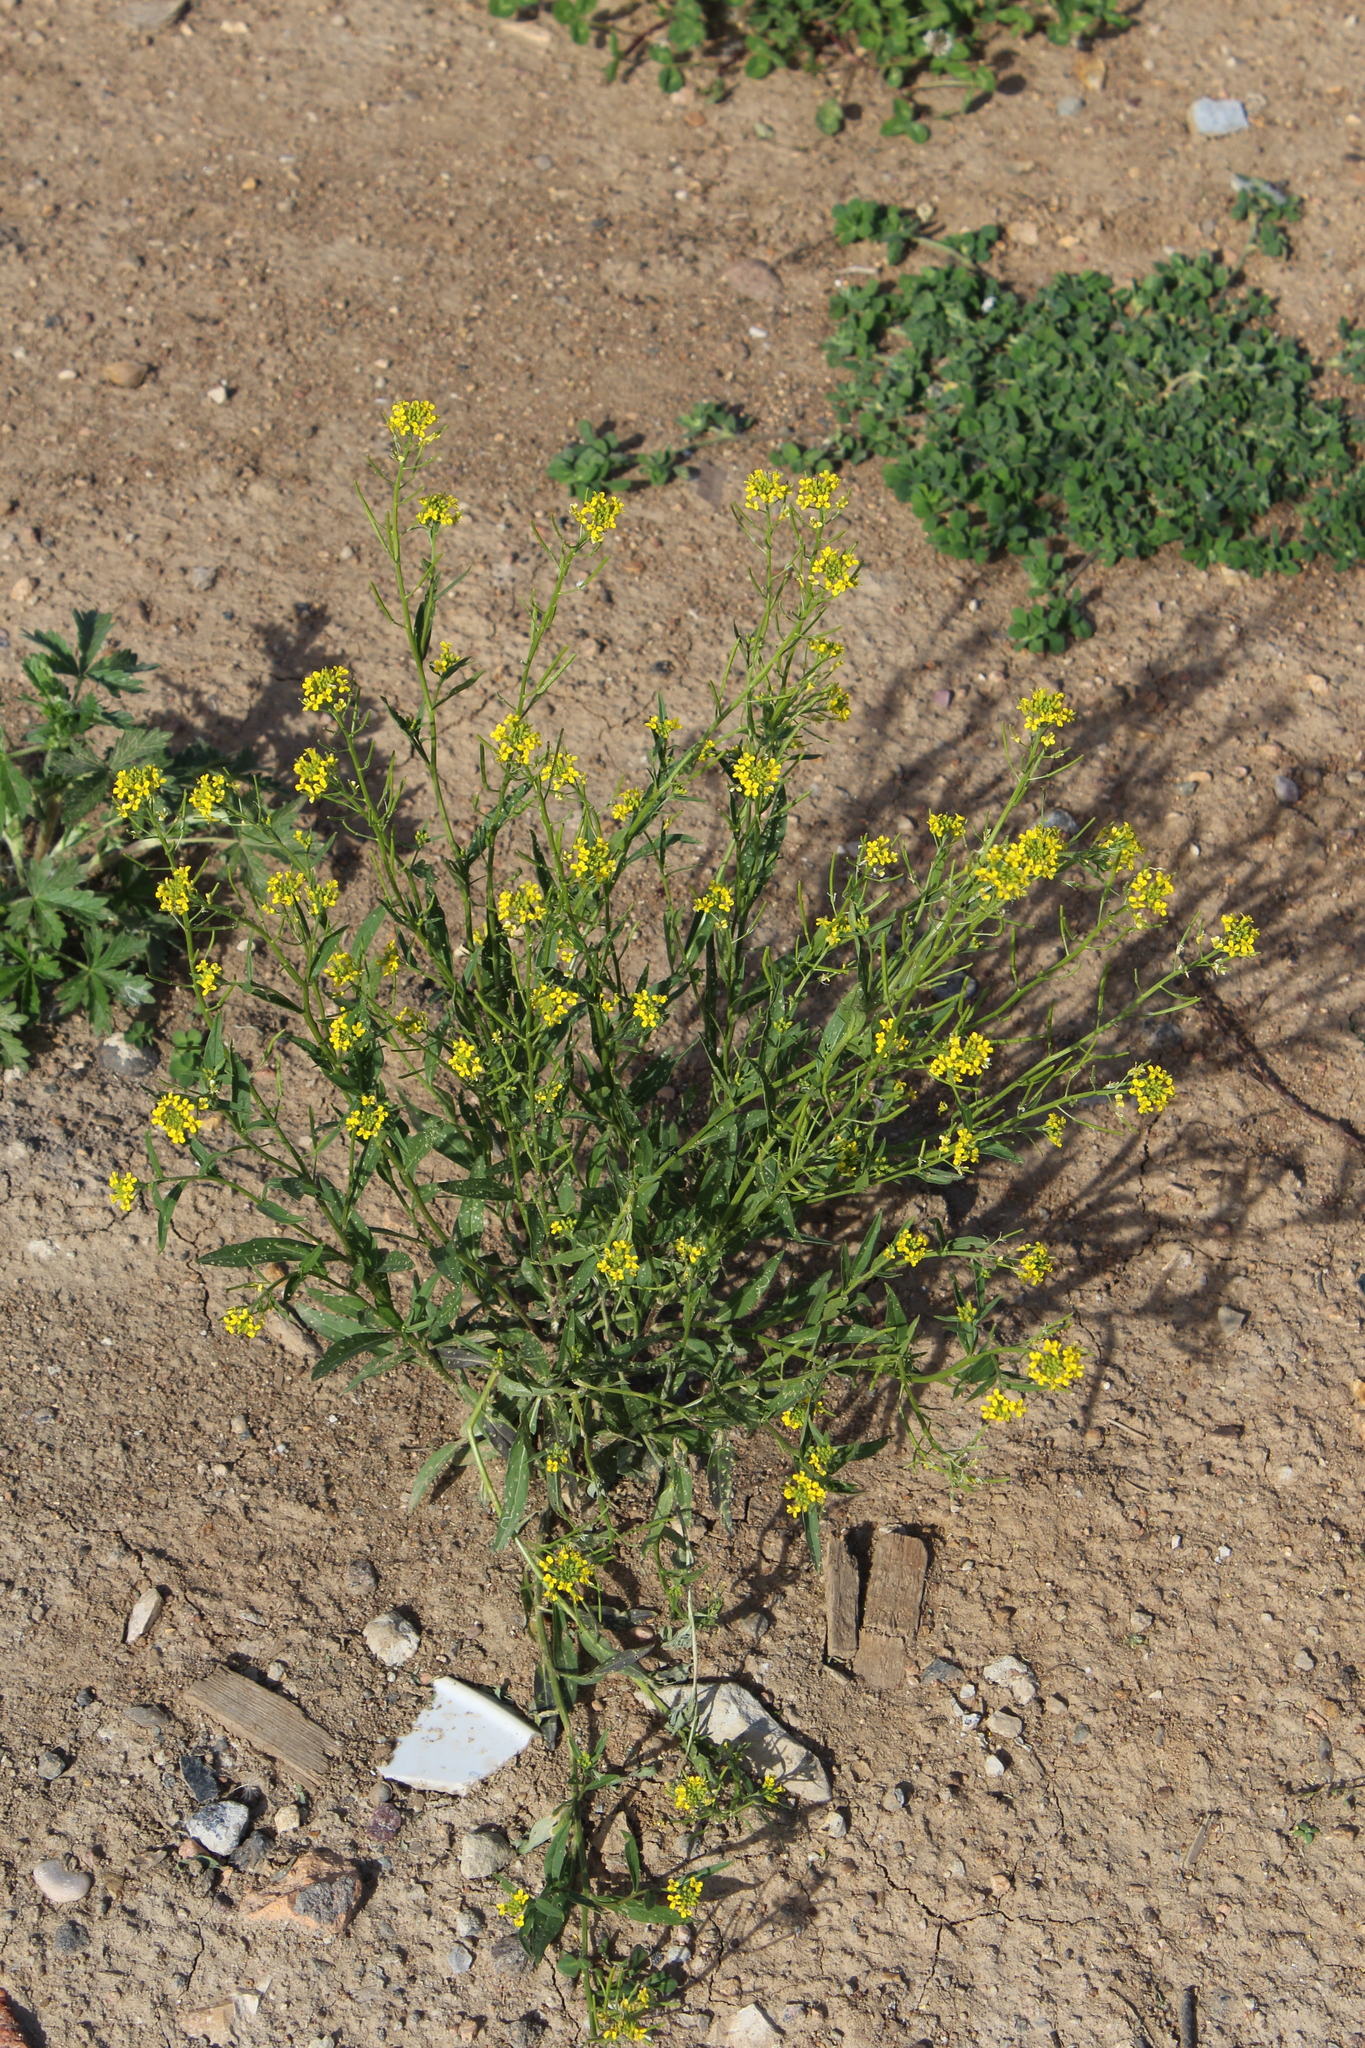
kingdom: Plantae
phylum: Tracheophyta
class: Magnoliopsida
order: Brassicales
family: Brassicaceae
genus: Erysimum
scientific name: Erysimum cheiranthoides
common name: Treacle mustard
